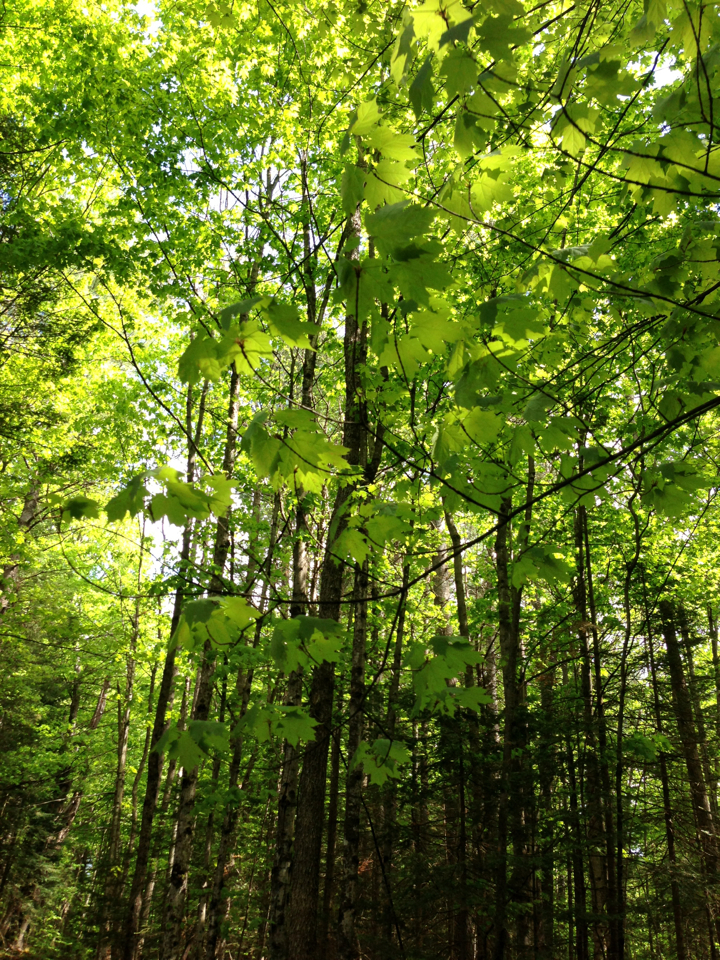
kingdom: Plantae
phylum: Tracheophyta
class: Magnoliopsida
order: Sapindales
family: Sapindaceae
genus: Acer
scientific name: Acer saccharum
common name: Sugar maple
